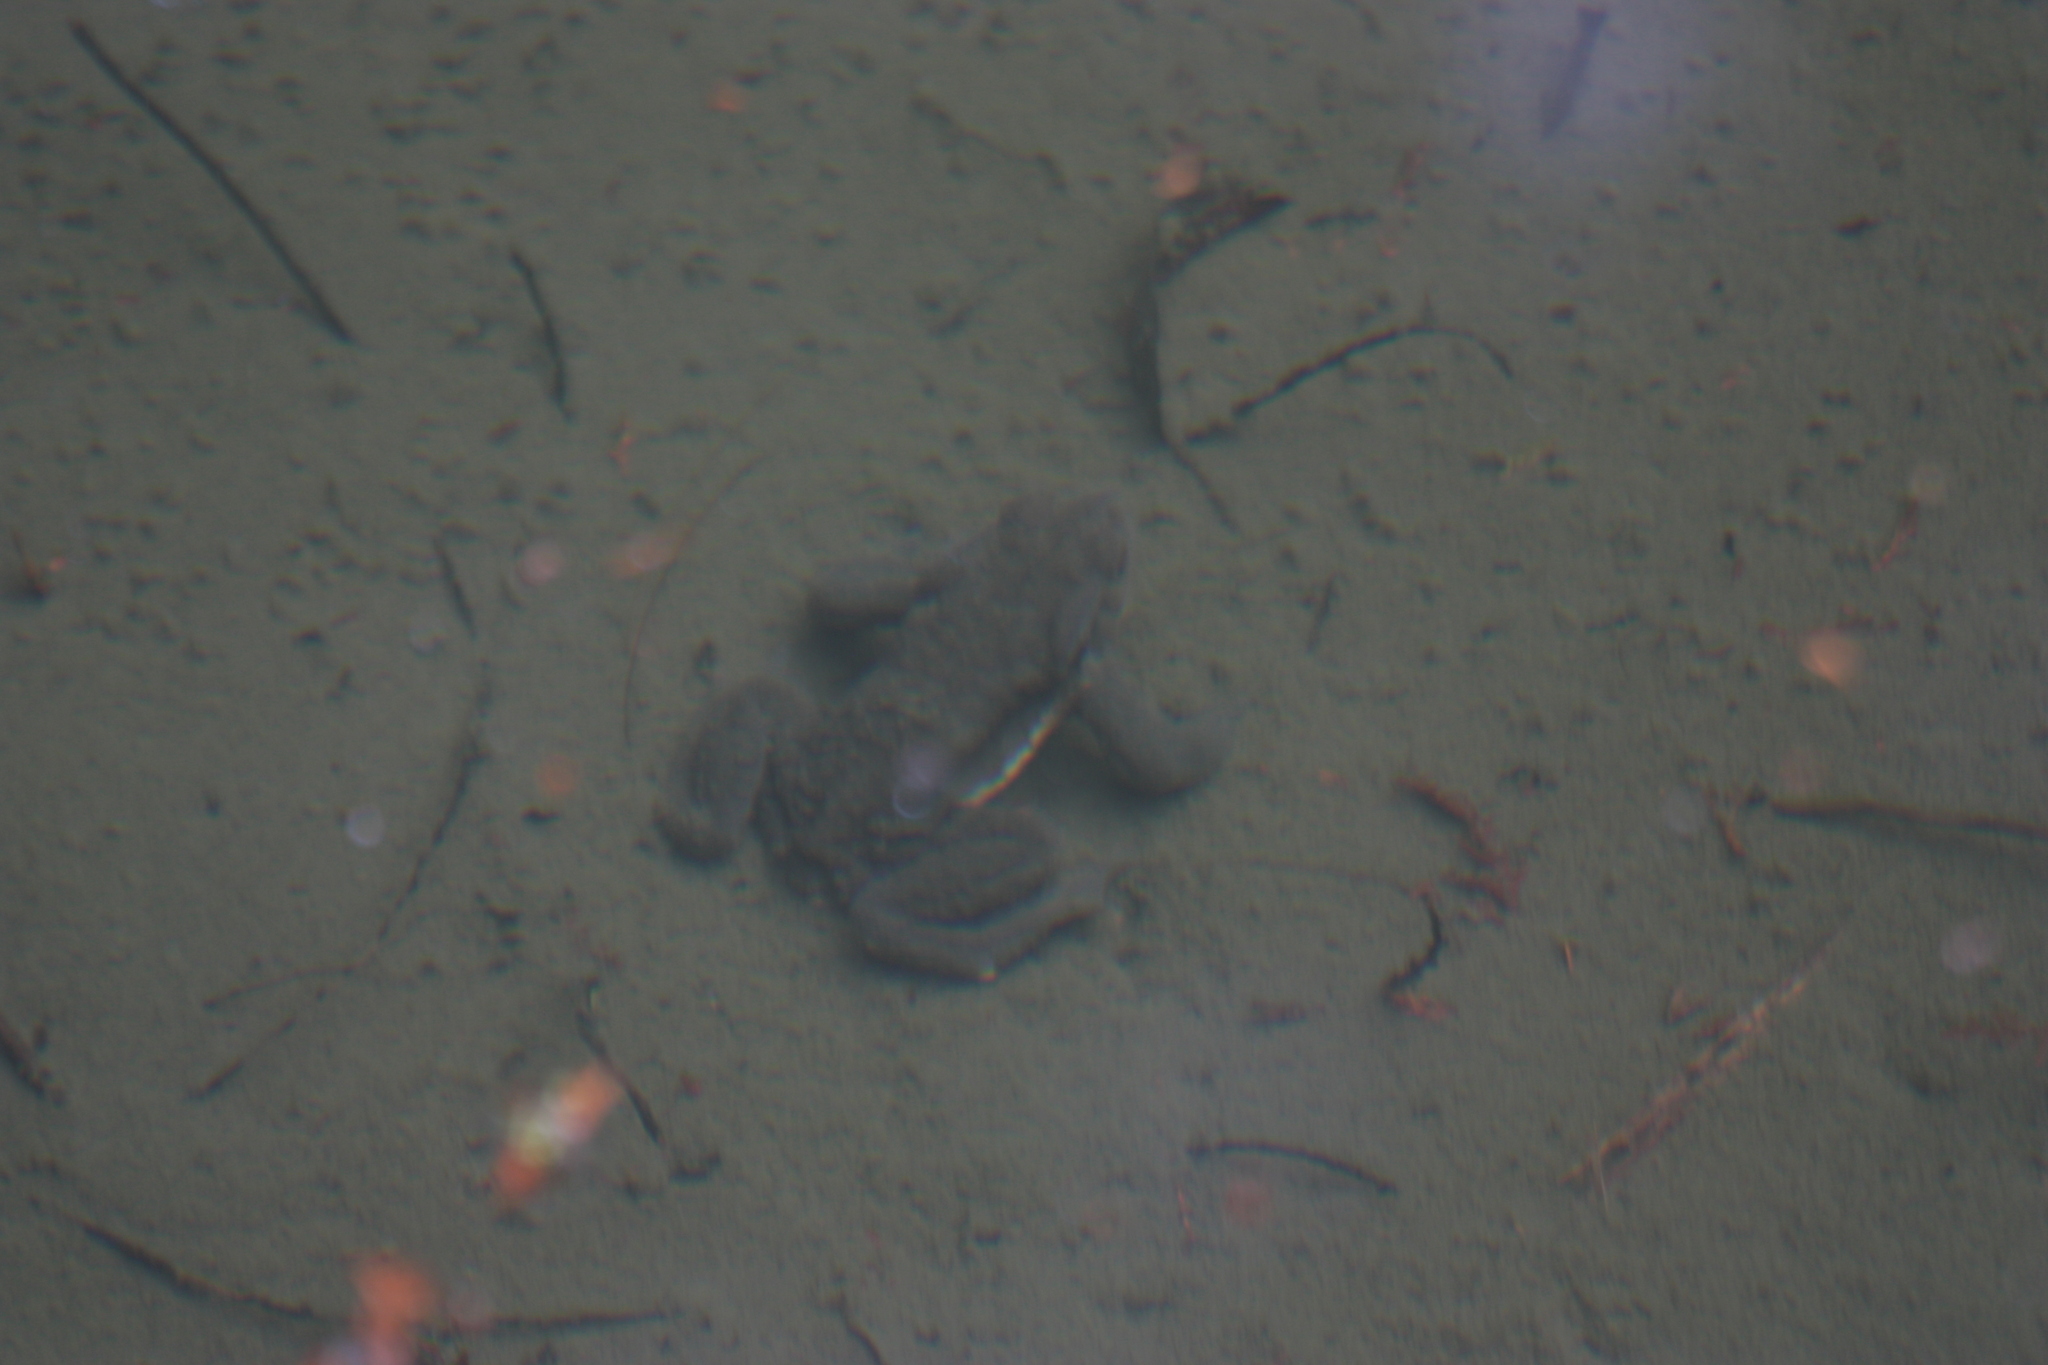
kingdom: Animalia
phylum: Chordata
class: Amphibia
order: Anura
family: Bufonidae
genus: Bufo
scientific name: Bufo bankorensis
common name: Bankor toad
